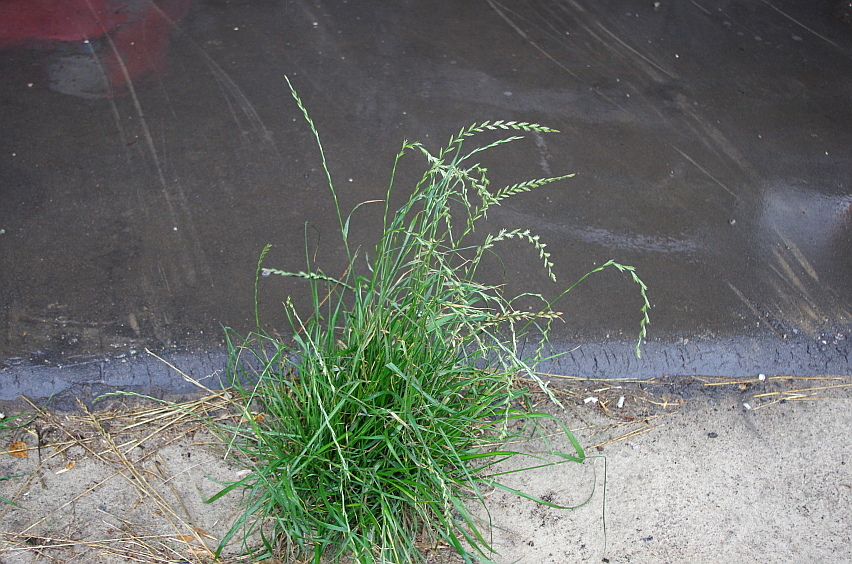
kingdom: Plantae
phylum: Tracheophyta
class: Liliopsida
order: Poales
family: Poaceae
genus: Lolium
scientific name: Lolium perenne
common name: Perennial ryegrass
